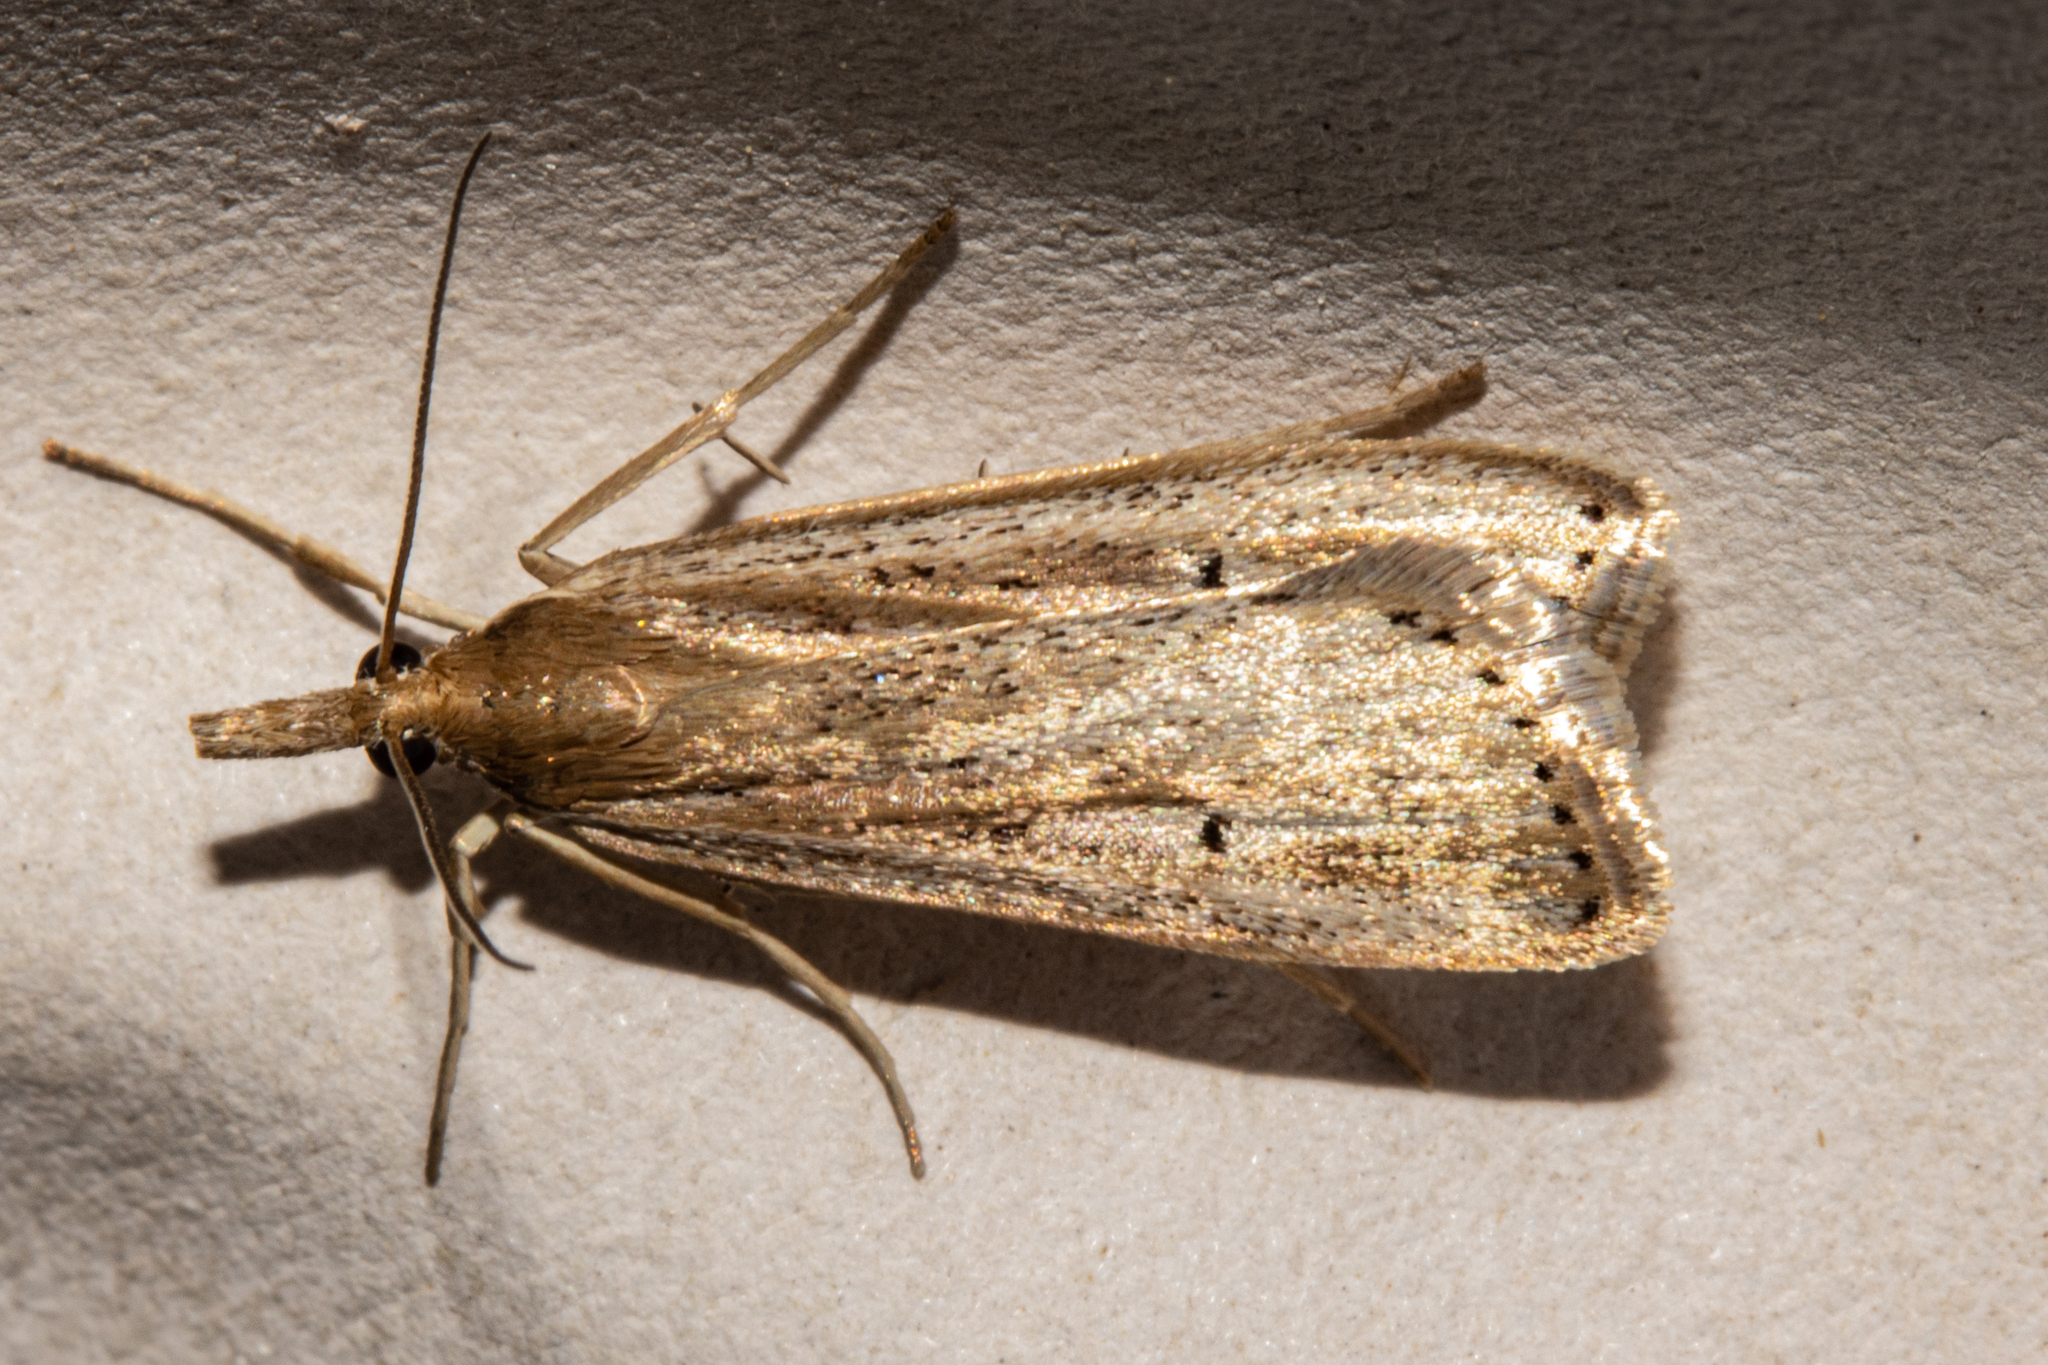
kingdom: Animalia
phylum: Arthropoda
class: Insecta
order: Lepidoptera
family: Crambidae
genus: Eudonia
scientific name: Eudonia sabulosella
